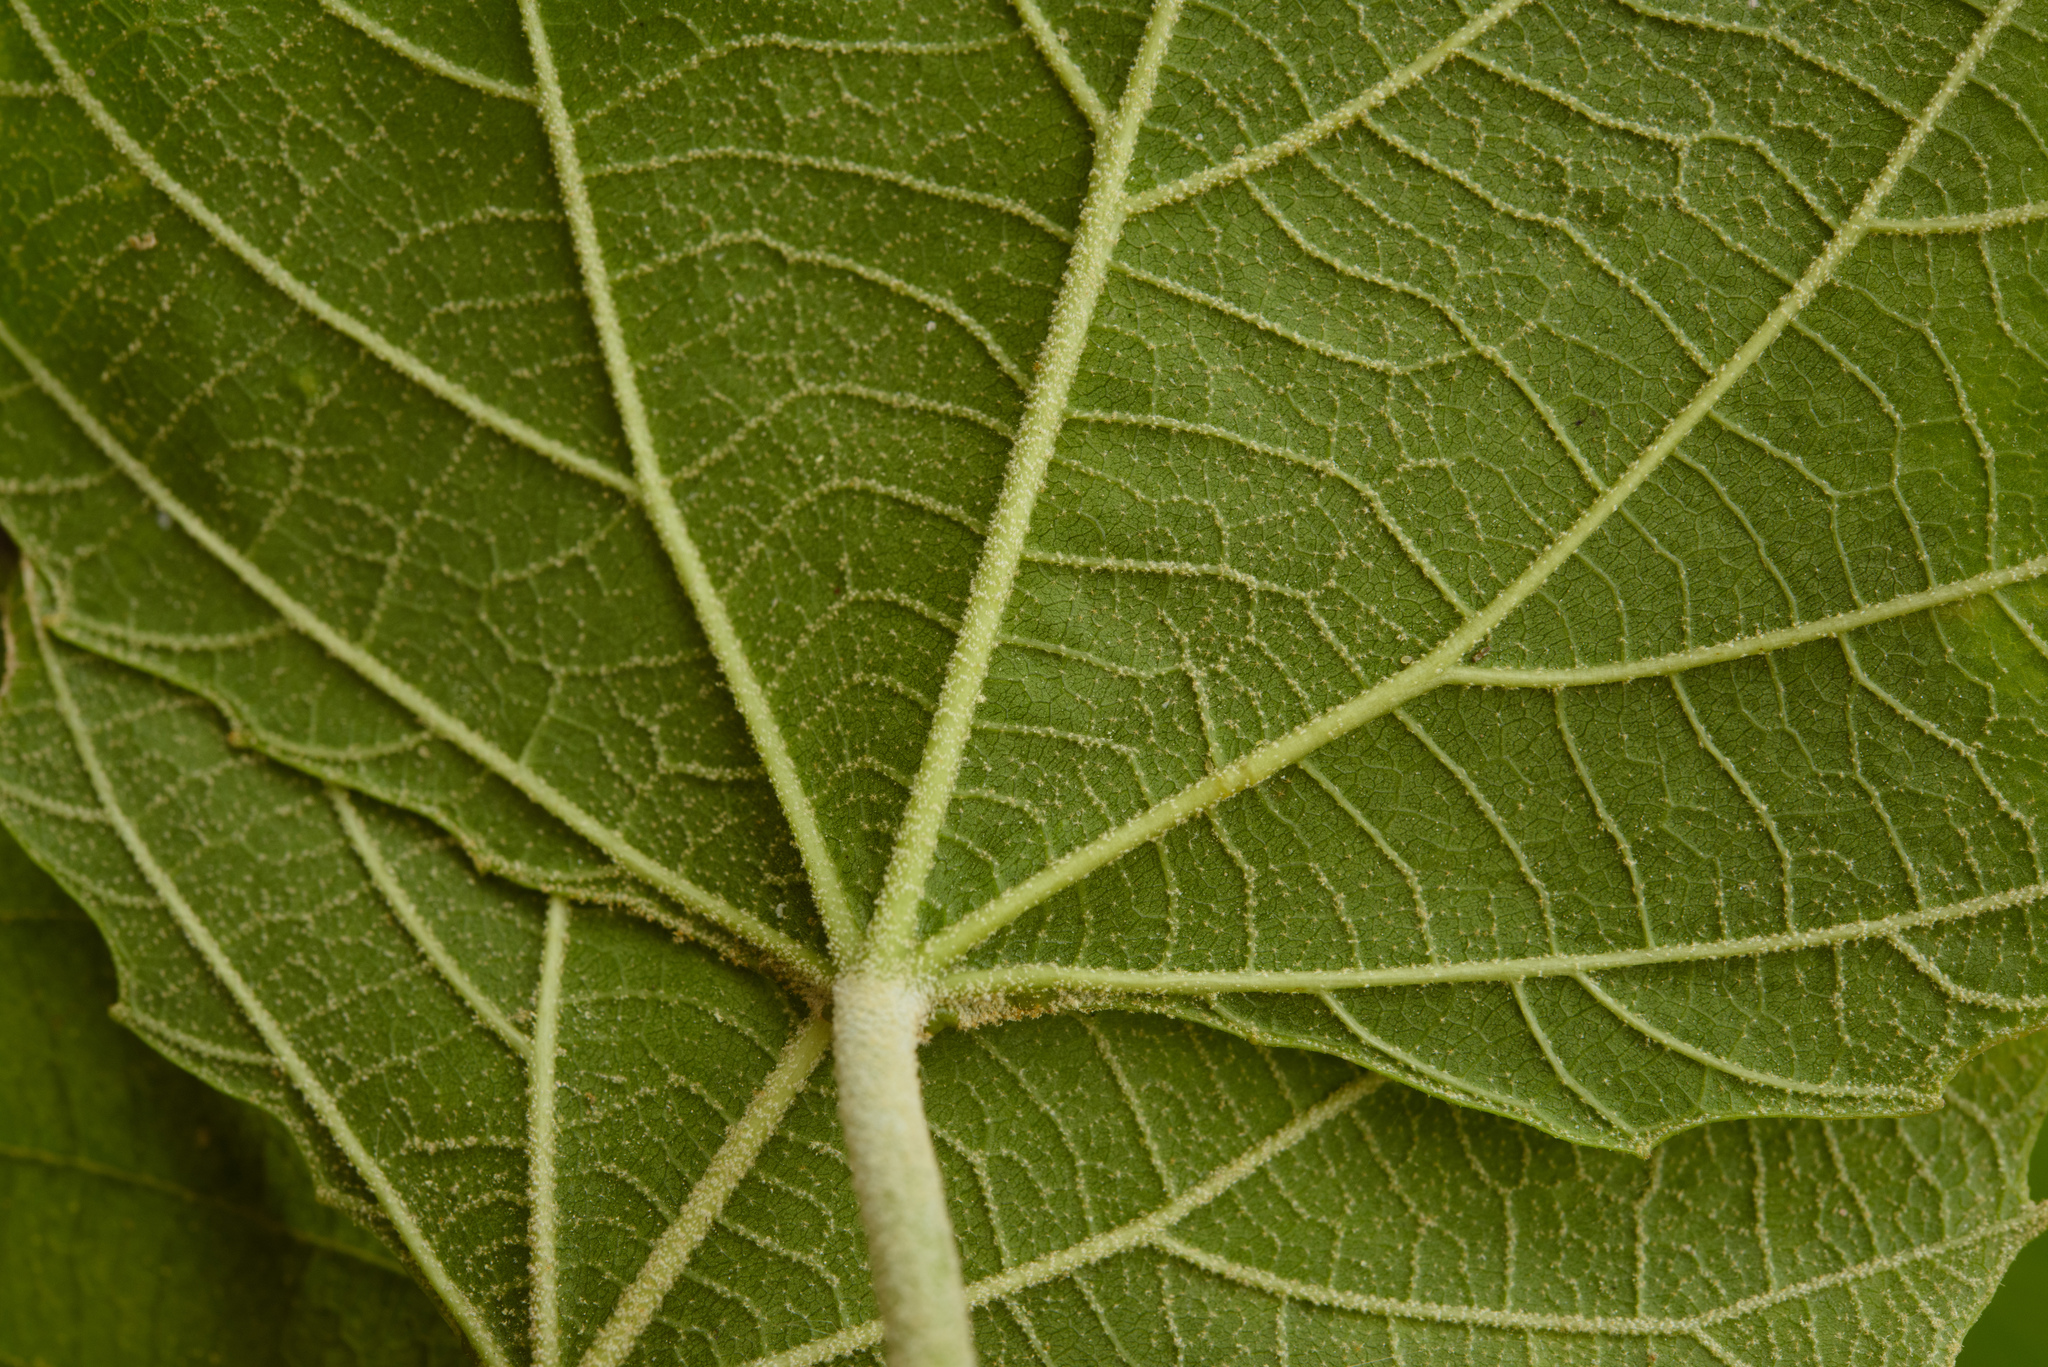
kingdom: Plantae
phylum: Tracheophyta
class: Magnoliopsida
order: Malpighiales
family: Euphorbiaceae
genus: Melanolepis
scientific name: Melanolepis multiglandulosa
